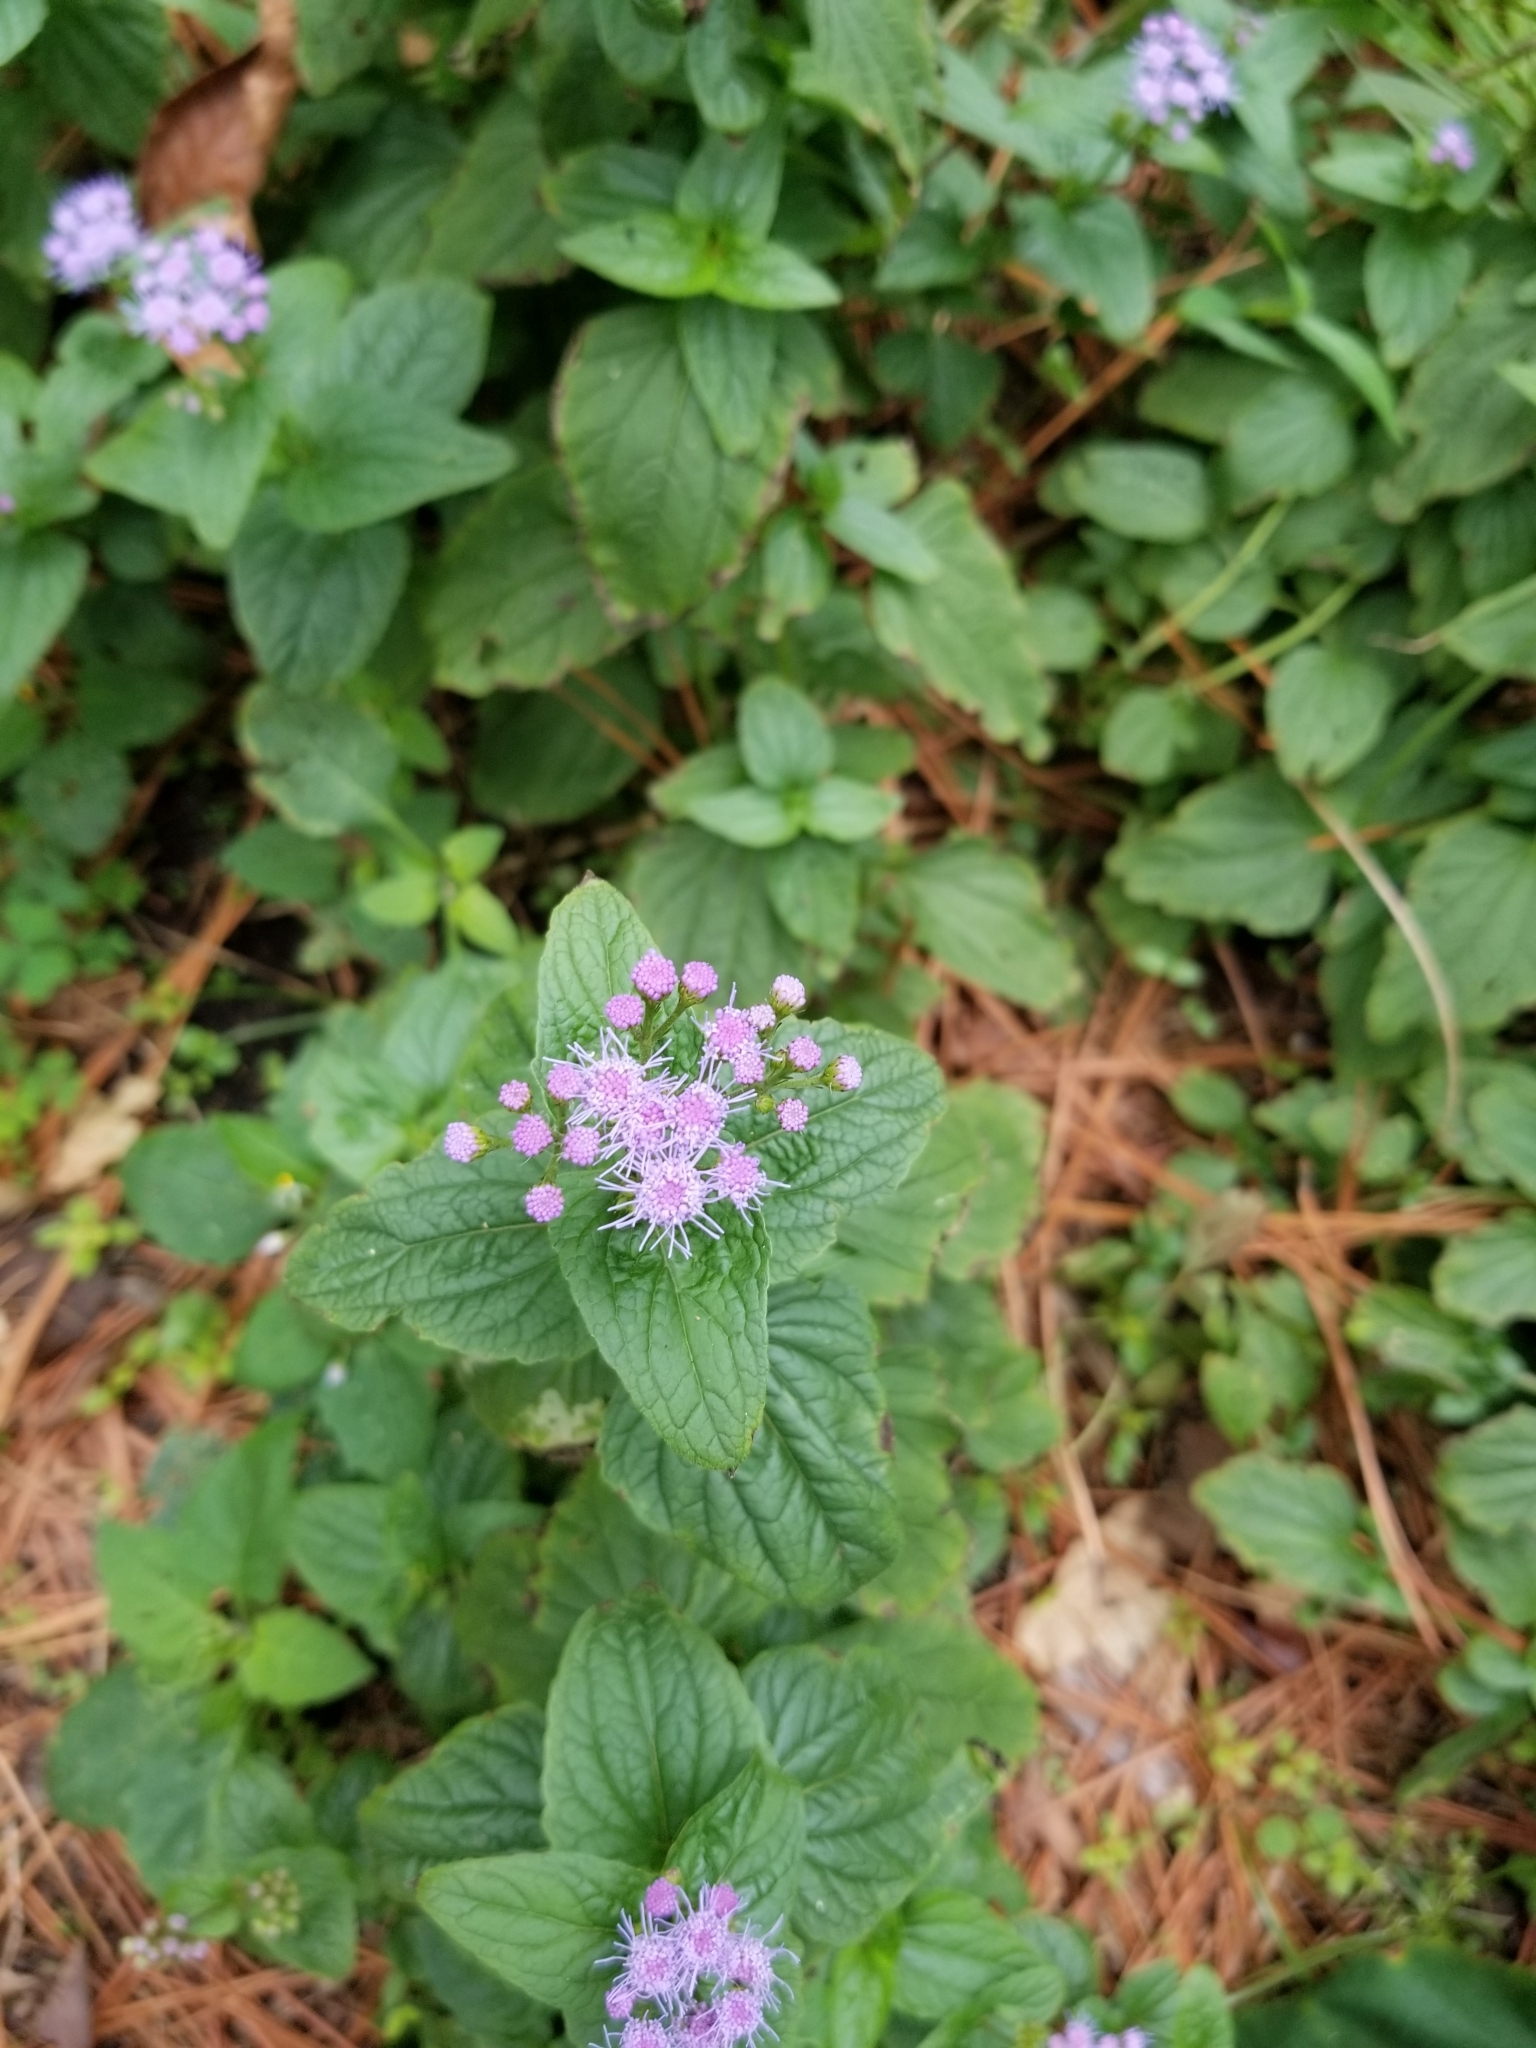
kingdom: Plantae
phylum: Tracheophyta
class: Magnoliopsida
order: Asterales
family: Asteraceae
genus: Conoclinium
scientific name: Conoclinium coelestinum
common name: Blue mistflower
